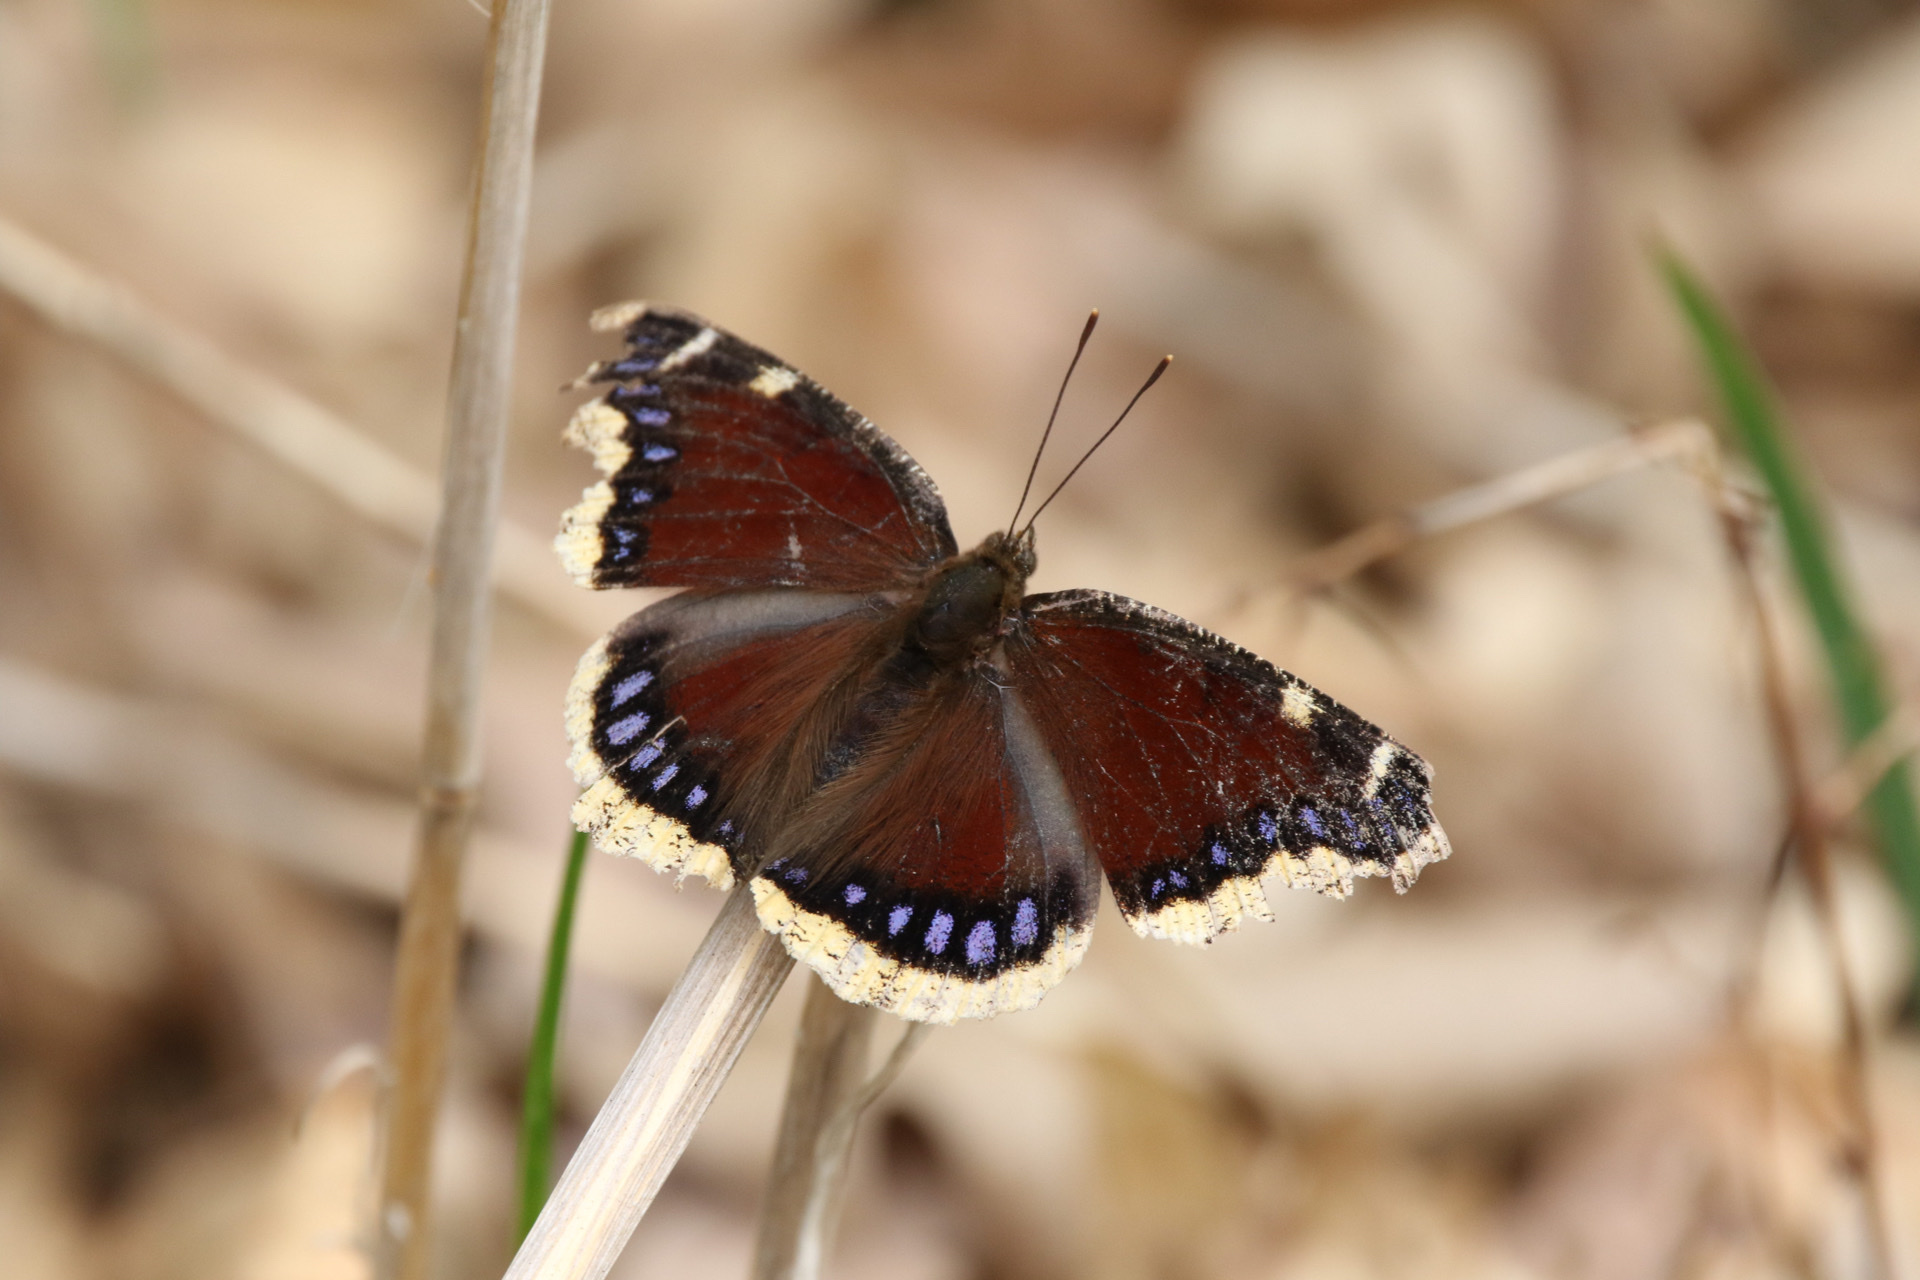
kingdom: Animalia
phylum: Arthropoda
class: Insecta
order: Lepidoptera
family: Nymphalidae
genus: Nymphalis
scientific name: Nymphalis antiopa
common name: Camberwell beauty
